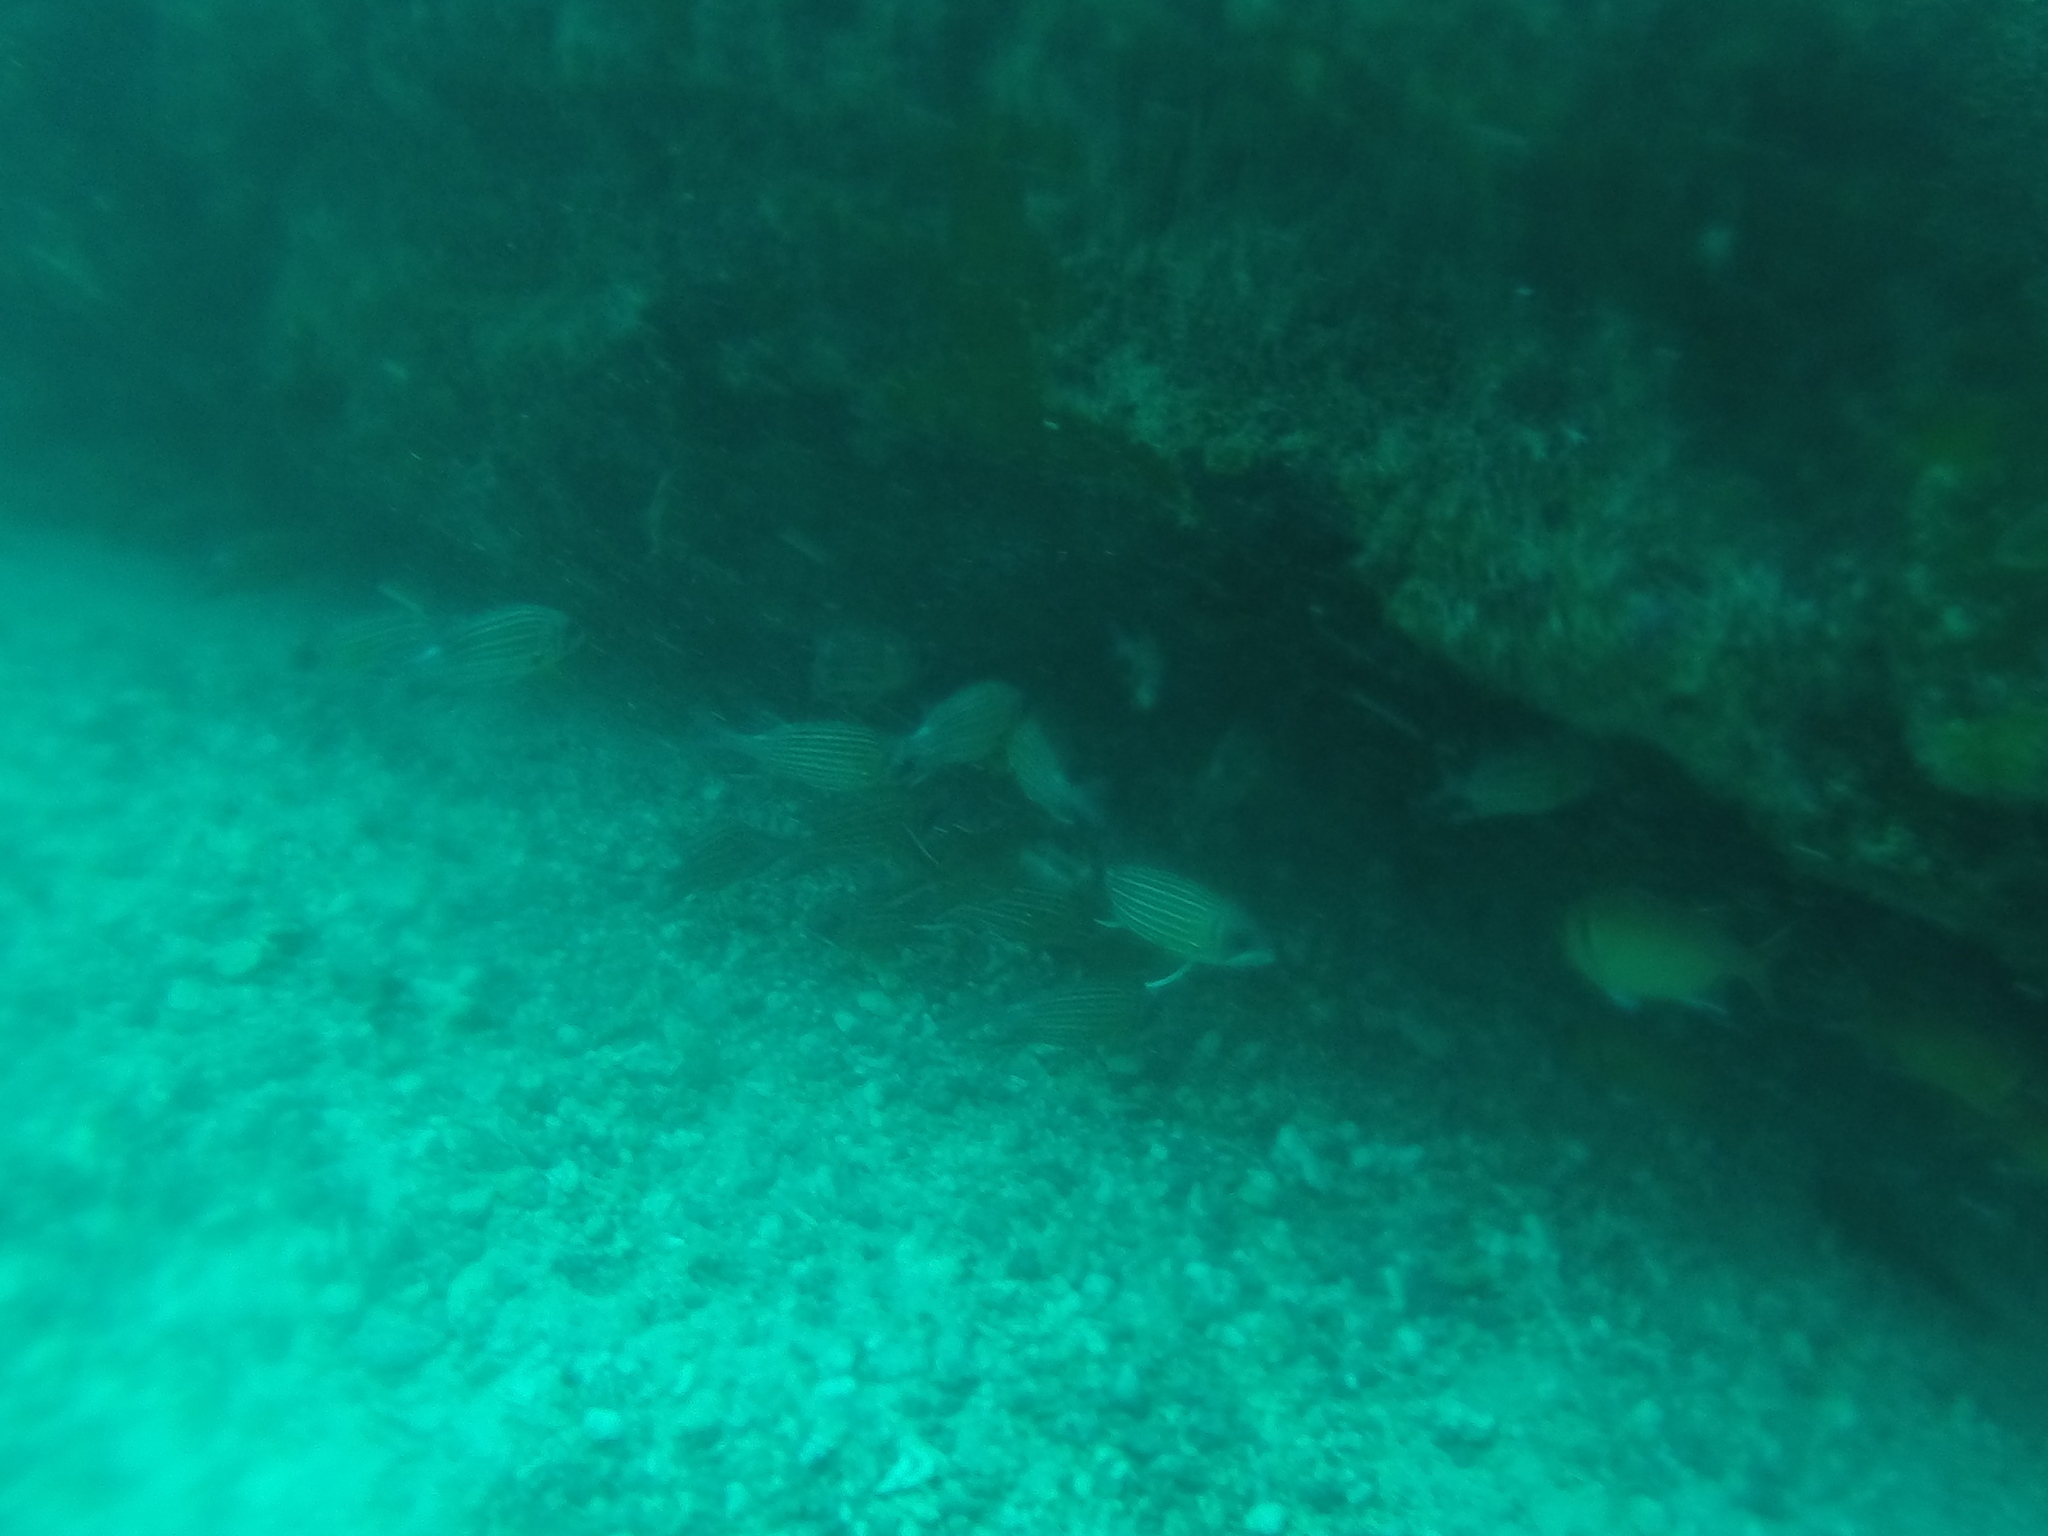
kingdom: Animalia
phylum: Chordata
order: Beryciformes
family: Holocentridae
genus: Sargocentron
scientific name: Sargocentron hastatum
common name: Red soldierfish
